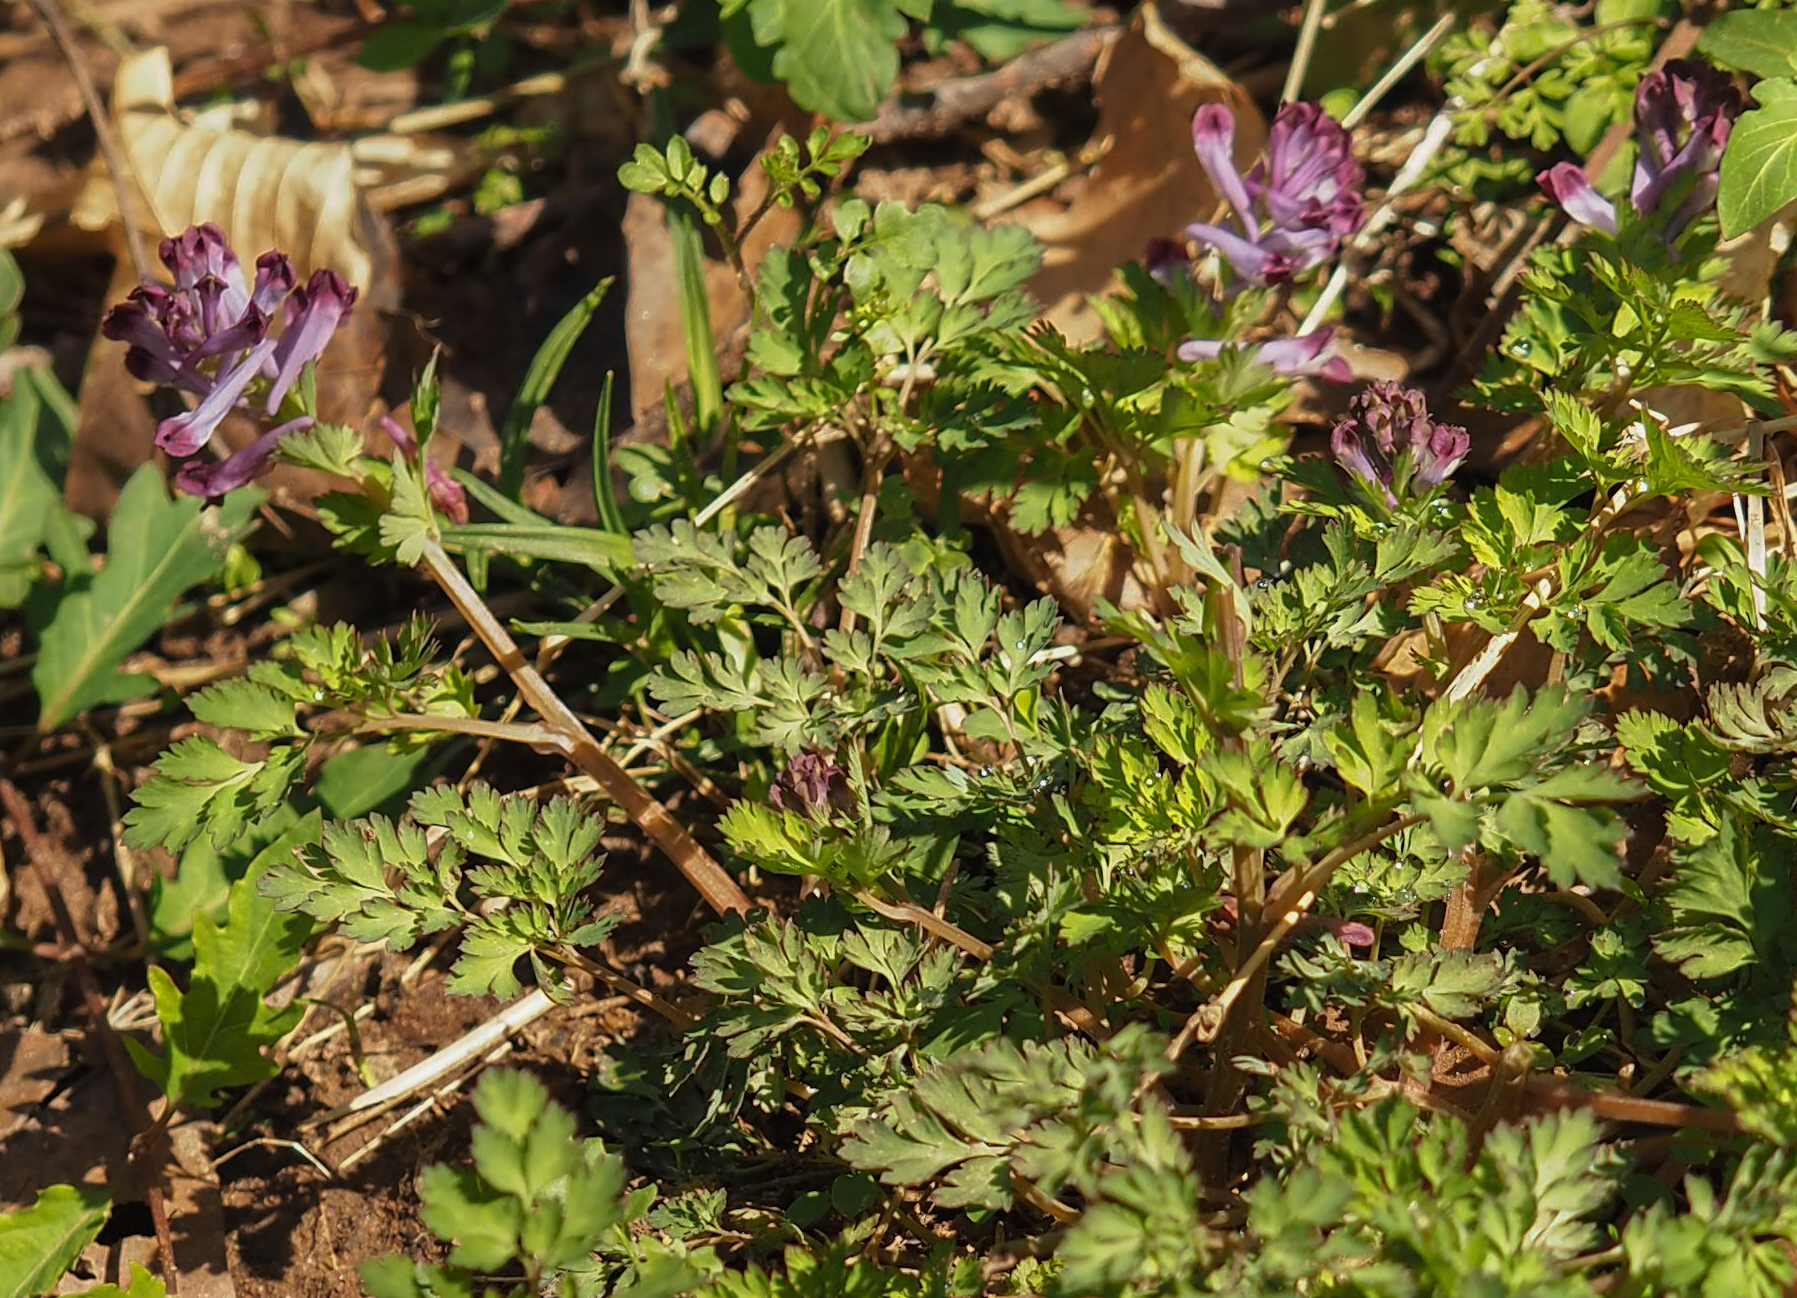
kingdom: Plantae
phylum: Tracheophyta
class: Magnoliopsida
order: Ranunculales
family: Papaveraceae
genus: Corydalis
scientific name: Corydalis incisa
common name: Incised fumewort
